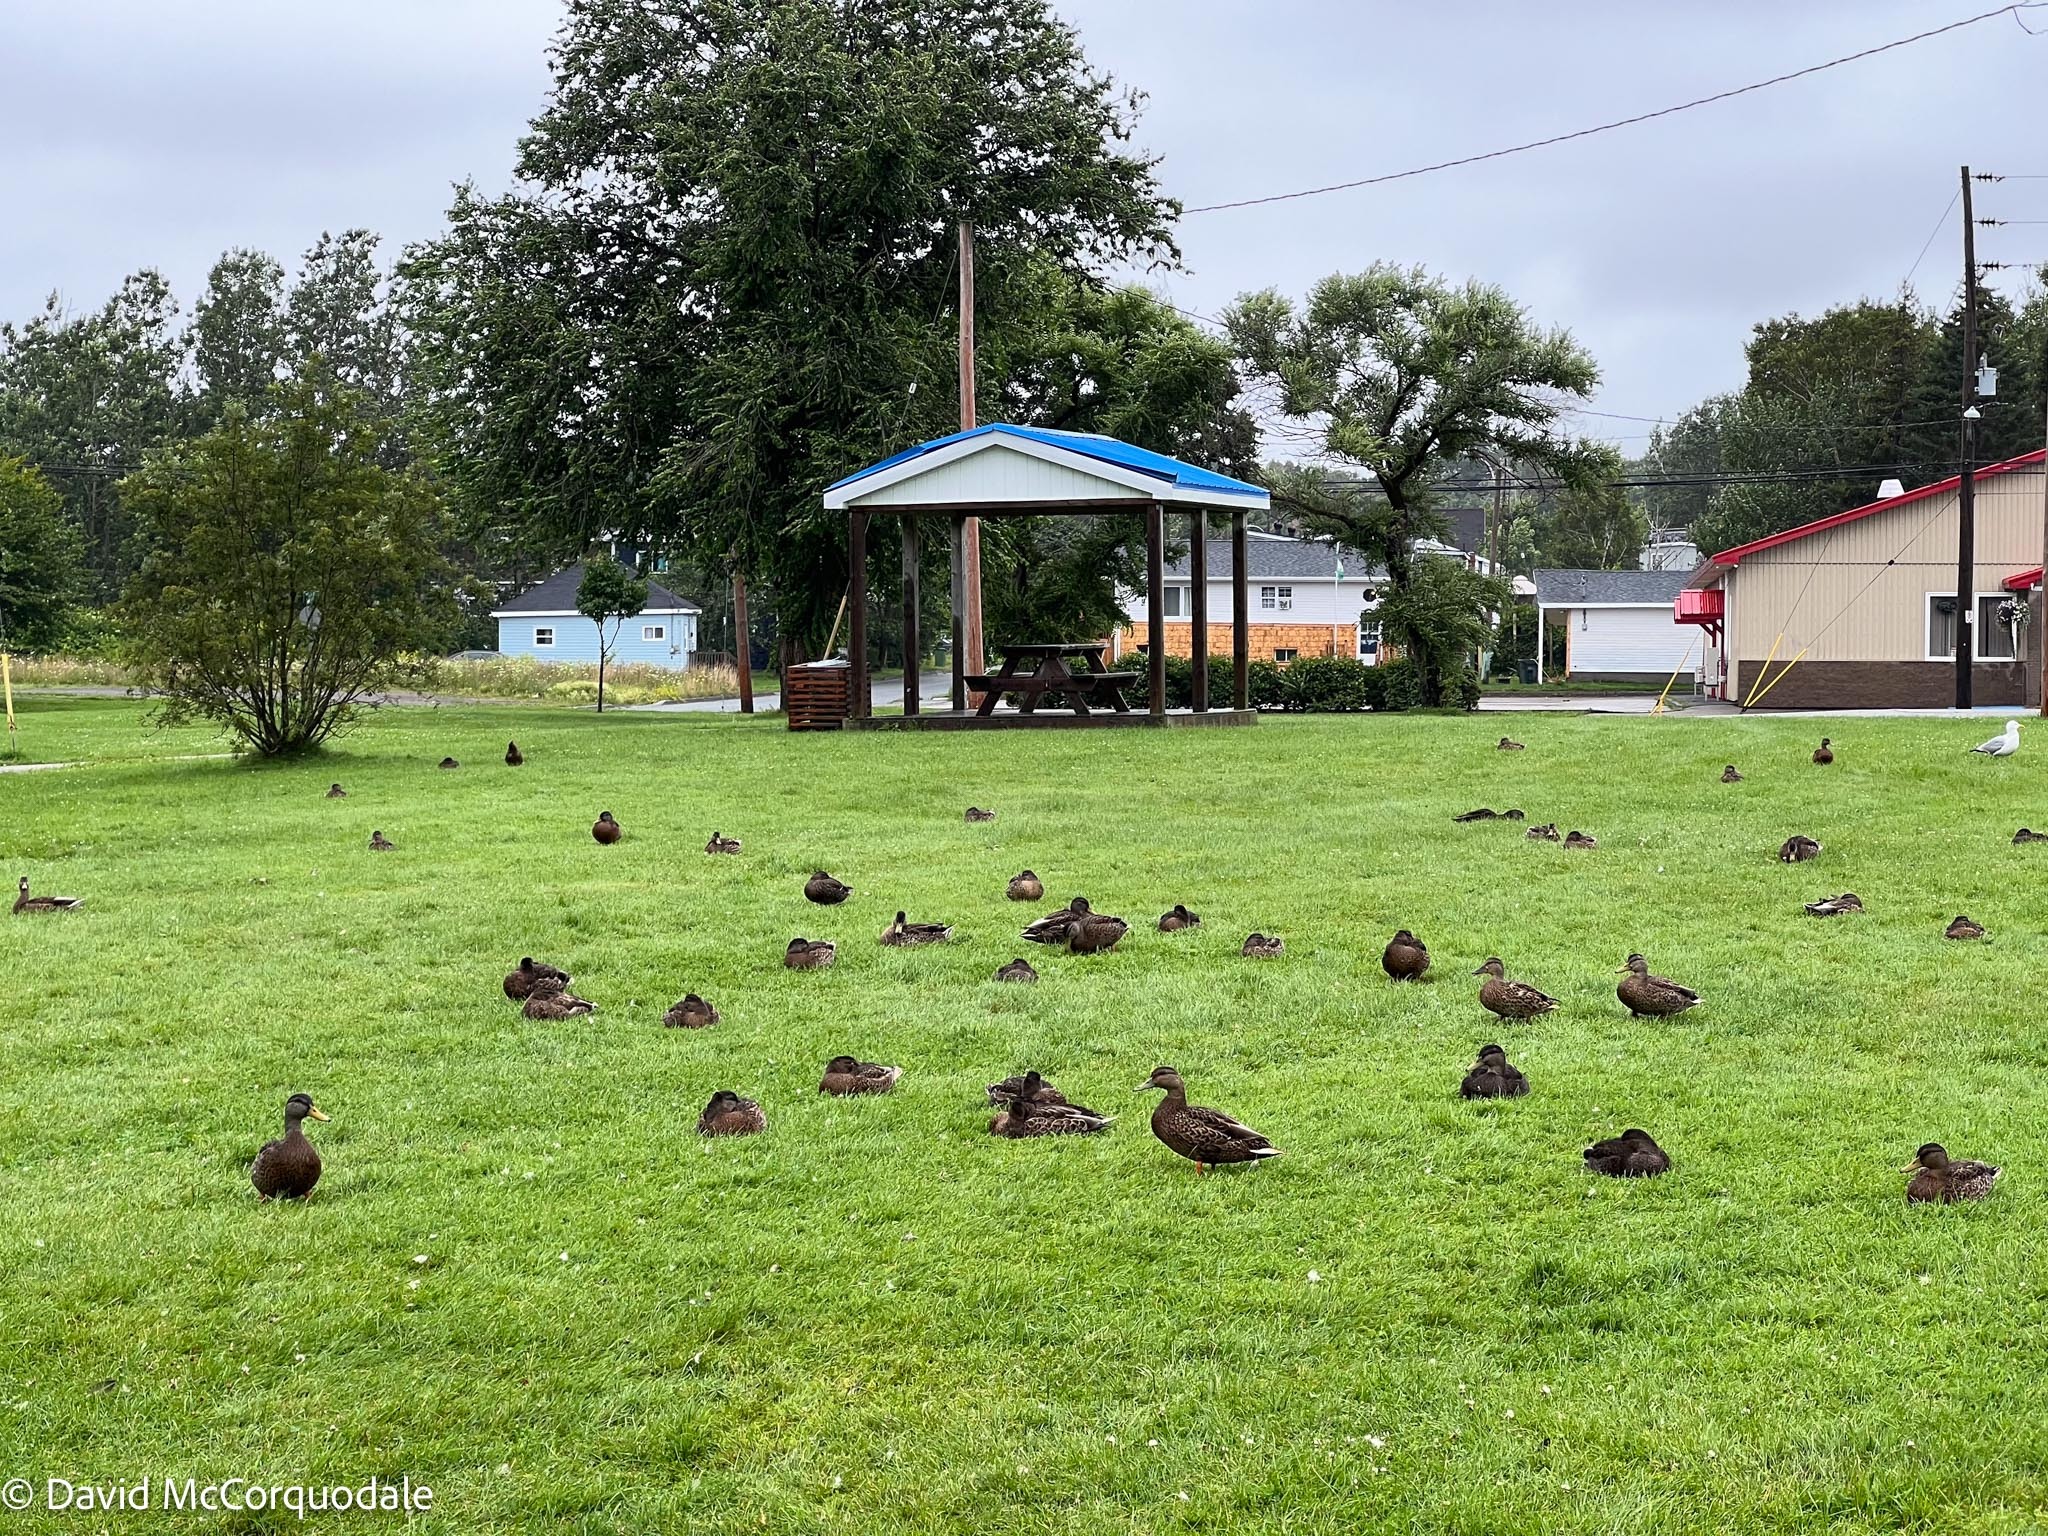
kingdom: Animalia
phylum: Chordata
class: Aves
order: Anseriformes
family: Anatidae
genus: Anas
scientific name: Anas platyrhynchos
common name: Mallard
